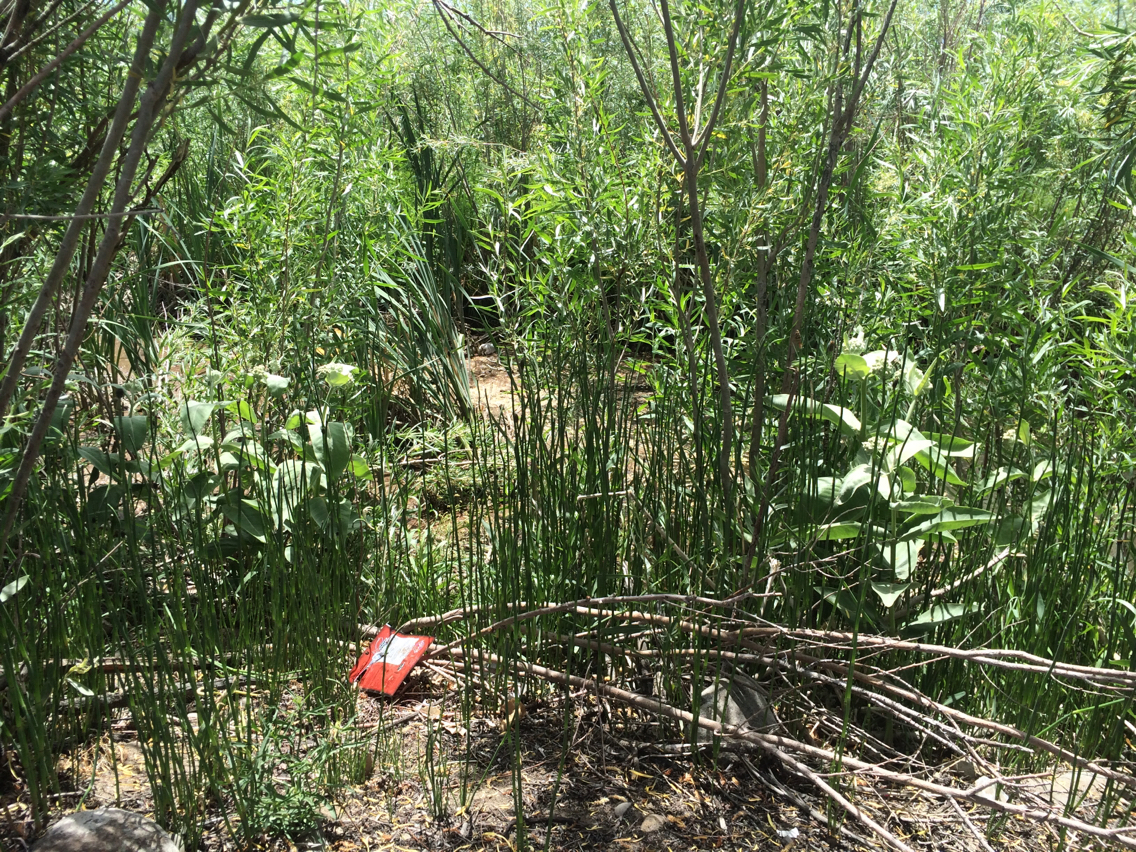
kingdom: Plantae
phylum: Tracheophyta
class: Magnoliopsida
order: Gentianales
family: Apocynaceae
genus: Asclepias
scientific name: Asclepias speciosa
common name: Showy milkweed
